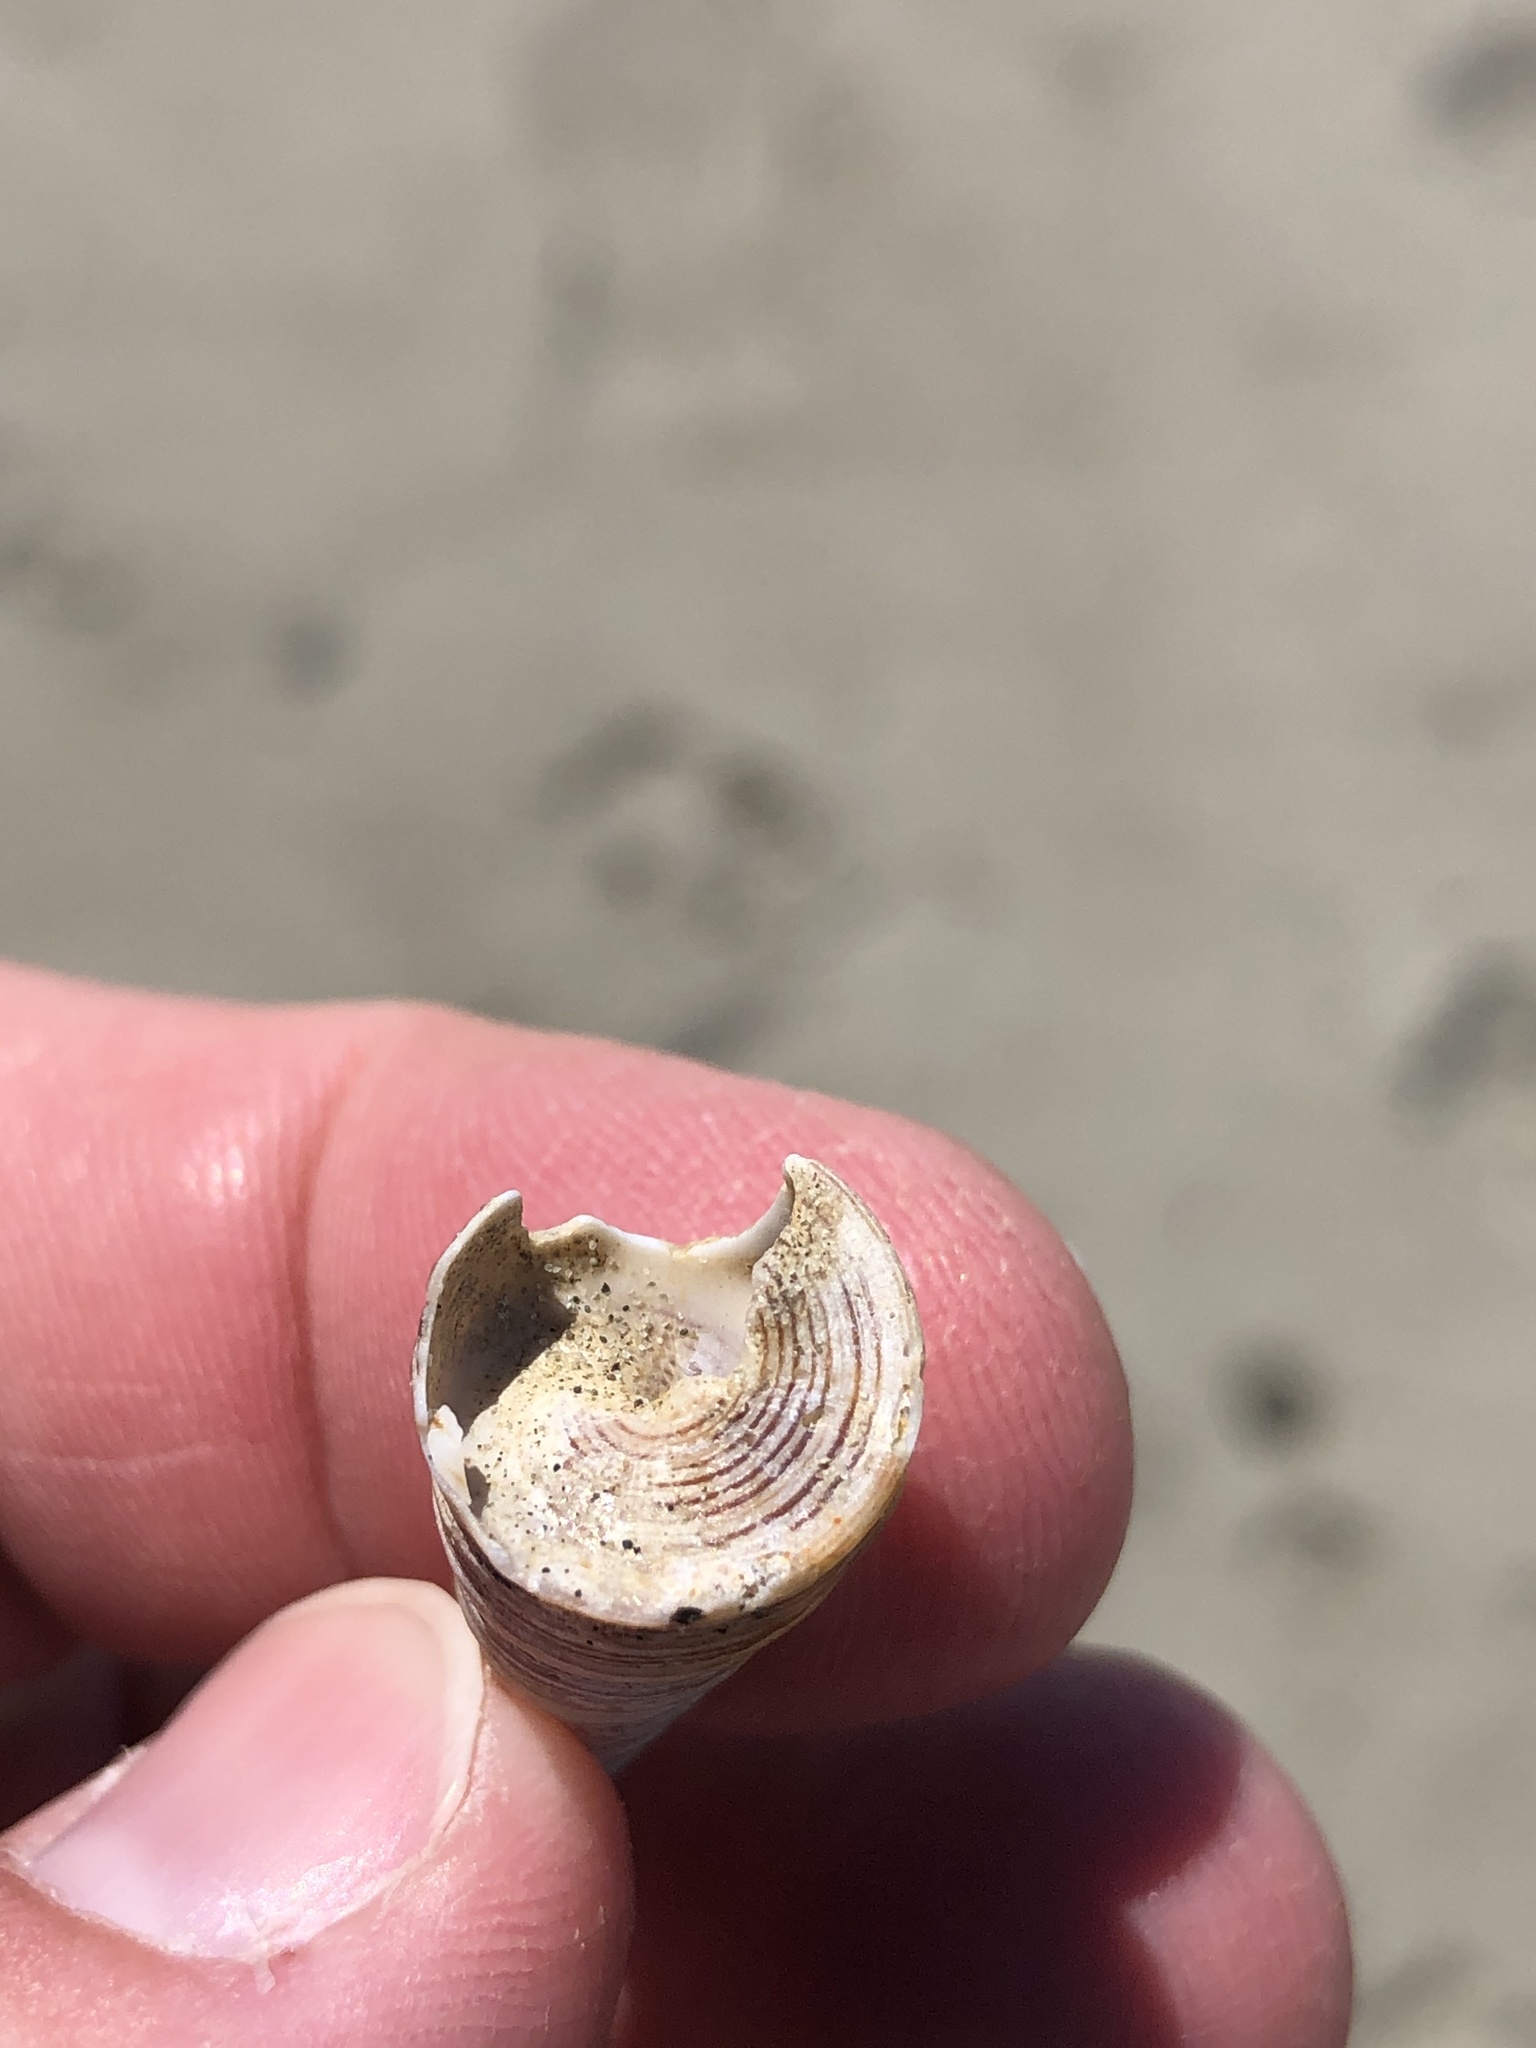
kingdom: Animalia
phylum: Mollusca
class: Gastropoda
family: Turritellidae
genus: Maoricolpus
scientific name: Maoricolpus roseus
